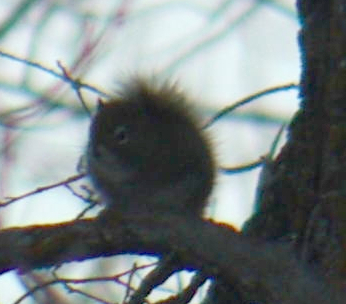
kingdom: Animalia
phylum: Chordata
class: Mammalia
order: Rodentia
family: Sciuridae
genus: Tamiasciurus
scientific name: Tamiasciurus hudsonicus
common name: Red squirrel
